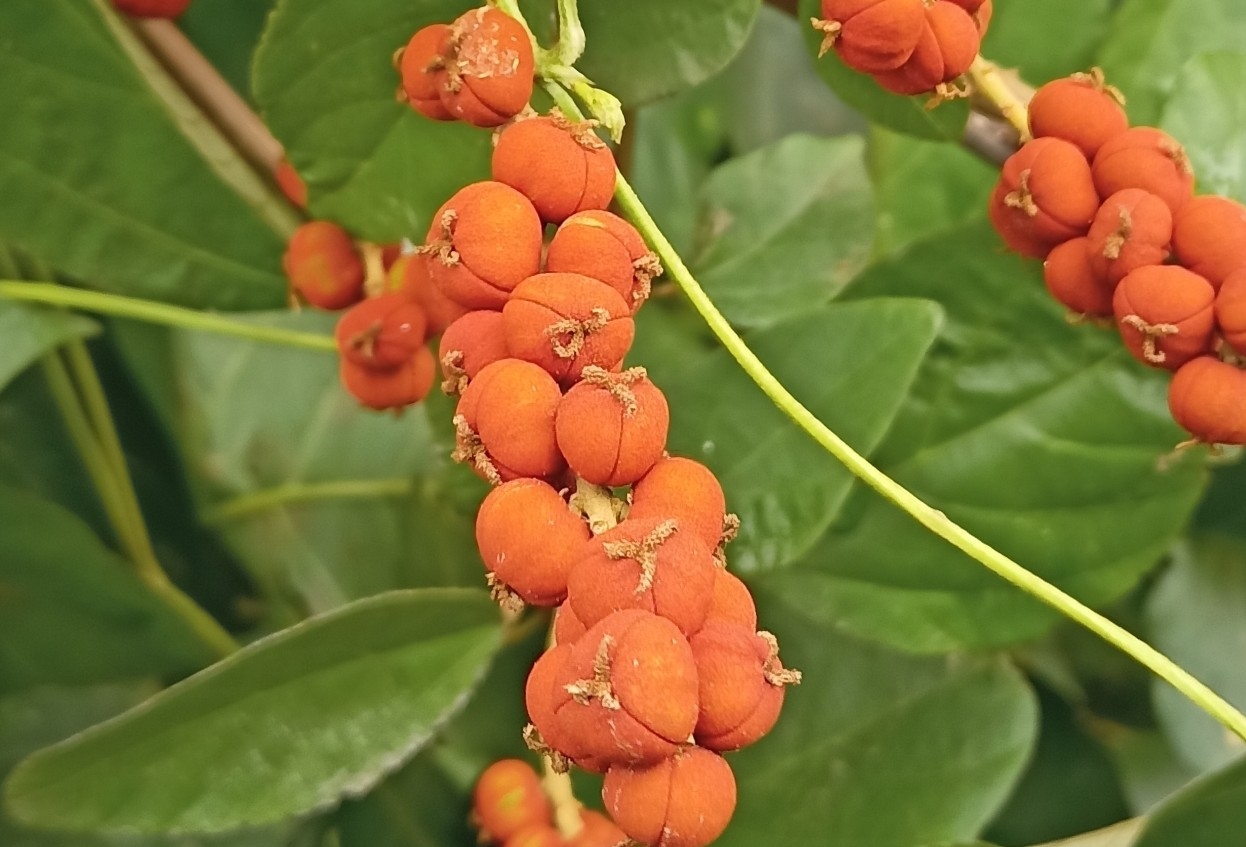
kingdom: Plantae
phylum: Tracheophyta
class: Magnoliopsida
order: Malpighiales
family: Euphorbiaceae
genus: Mallotus
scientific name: Mallotus philippensis
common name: Kamala tree
